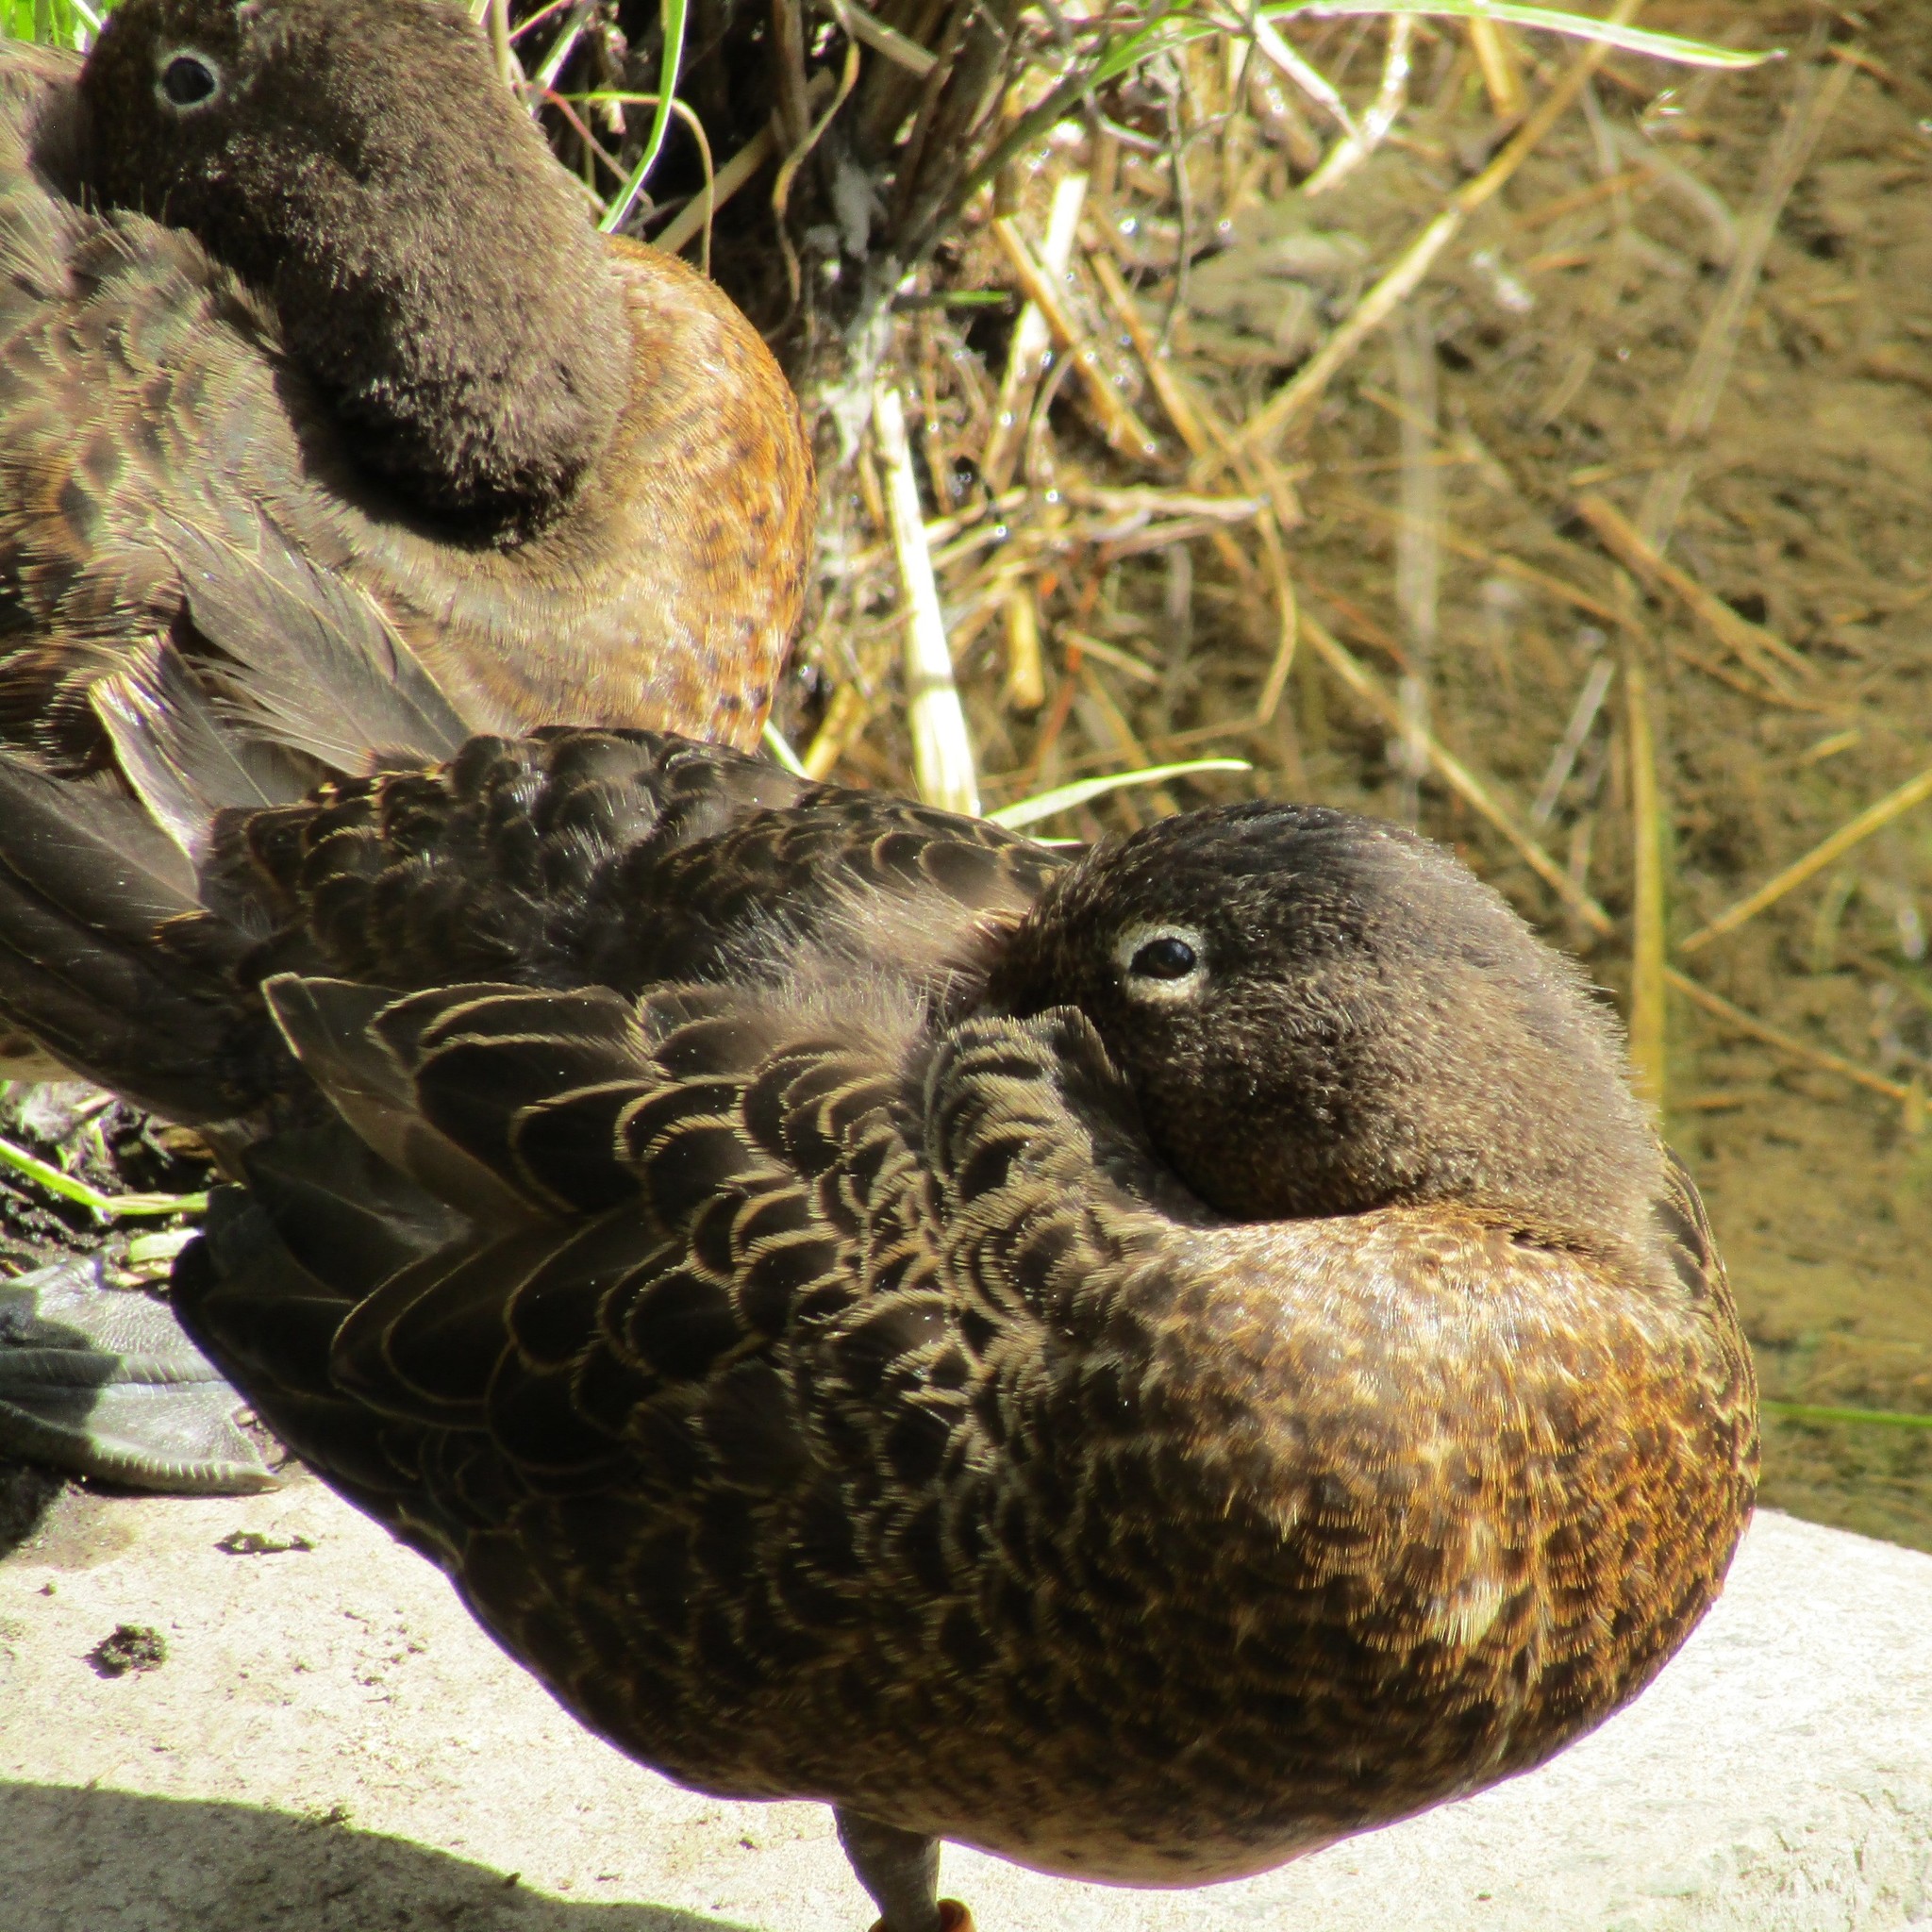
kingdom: Animalia
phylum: Chordata
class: Aves
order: Anseriformes
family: Anatidae
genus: Anas
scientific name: Anas chlorotis
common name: Brown teal
